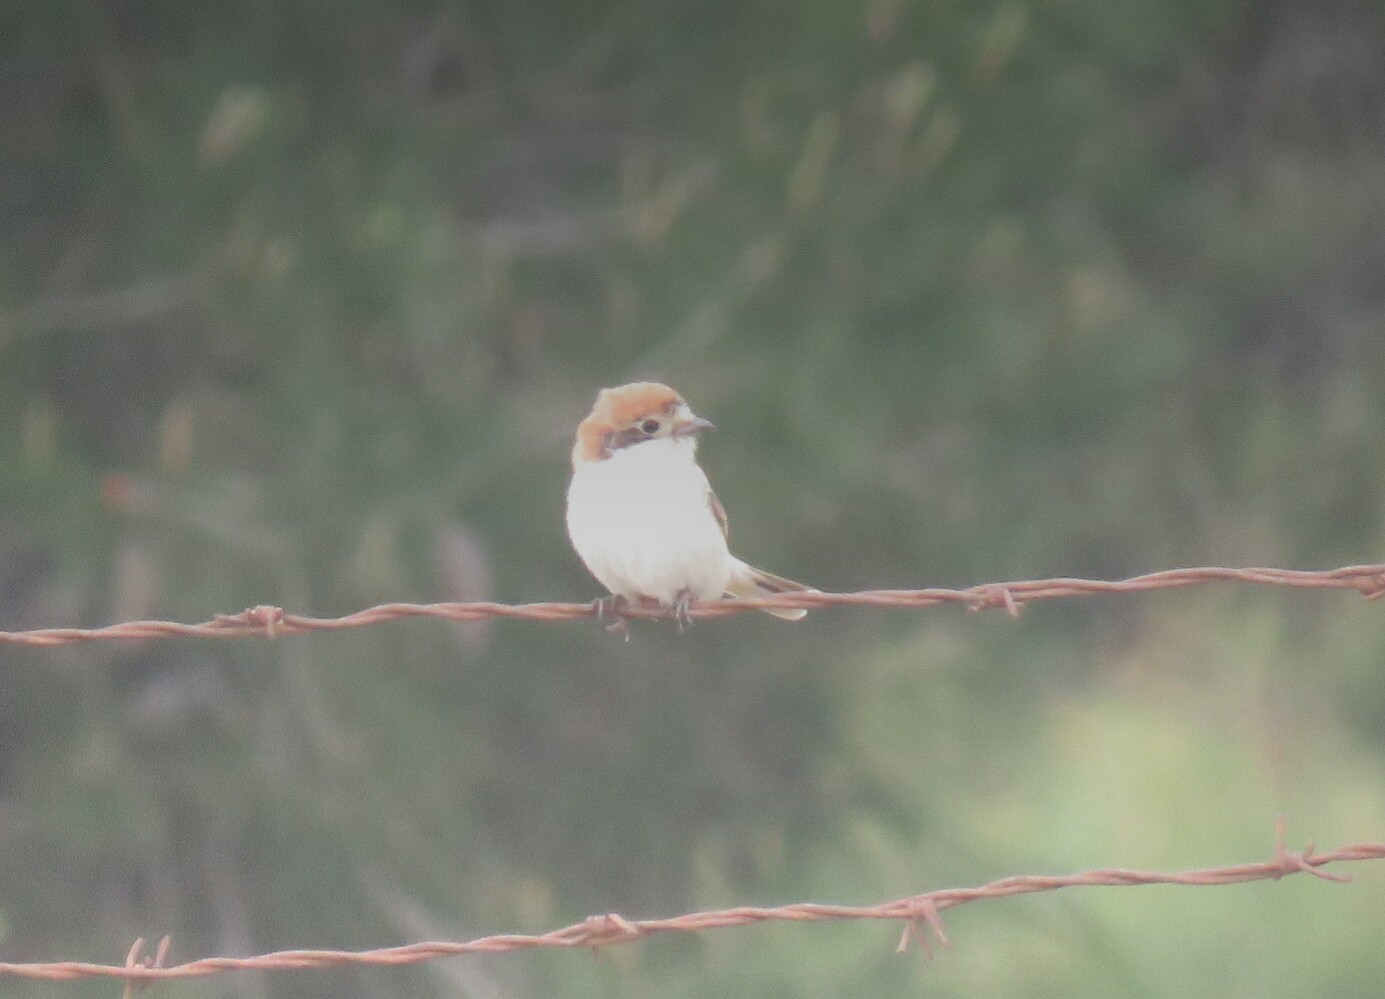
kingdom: Animalia
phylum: Chordata
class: Aves
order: Passeriformes
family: Laniidae
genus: Lanius
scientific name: Lanius senator
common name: Woodchat shrike
